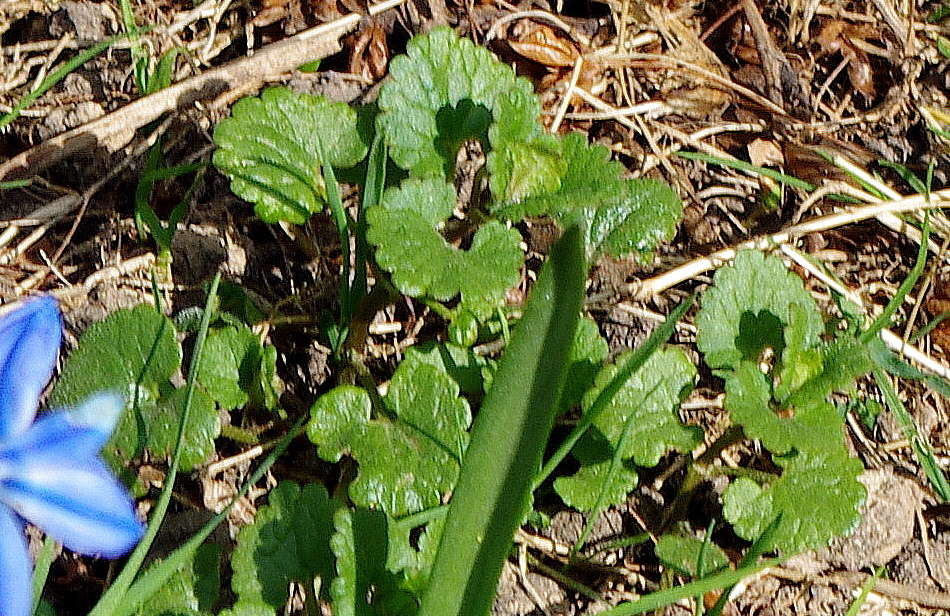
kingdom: Plantae
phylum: Tracheophyta
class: Magnoliopsida
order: Lamiales
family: Lamiaceae
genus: Glechoma
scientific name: Glechoma hederacea
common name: Ground ivy
